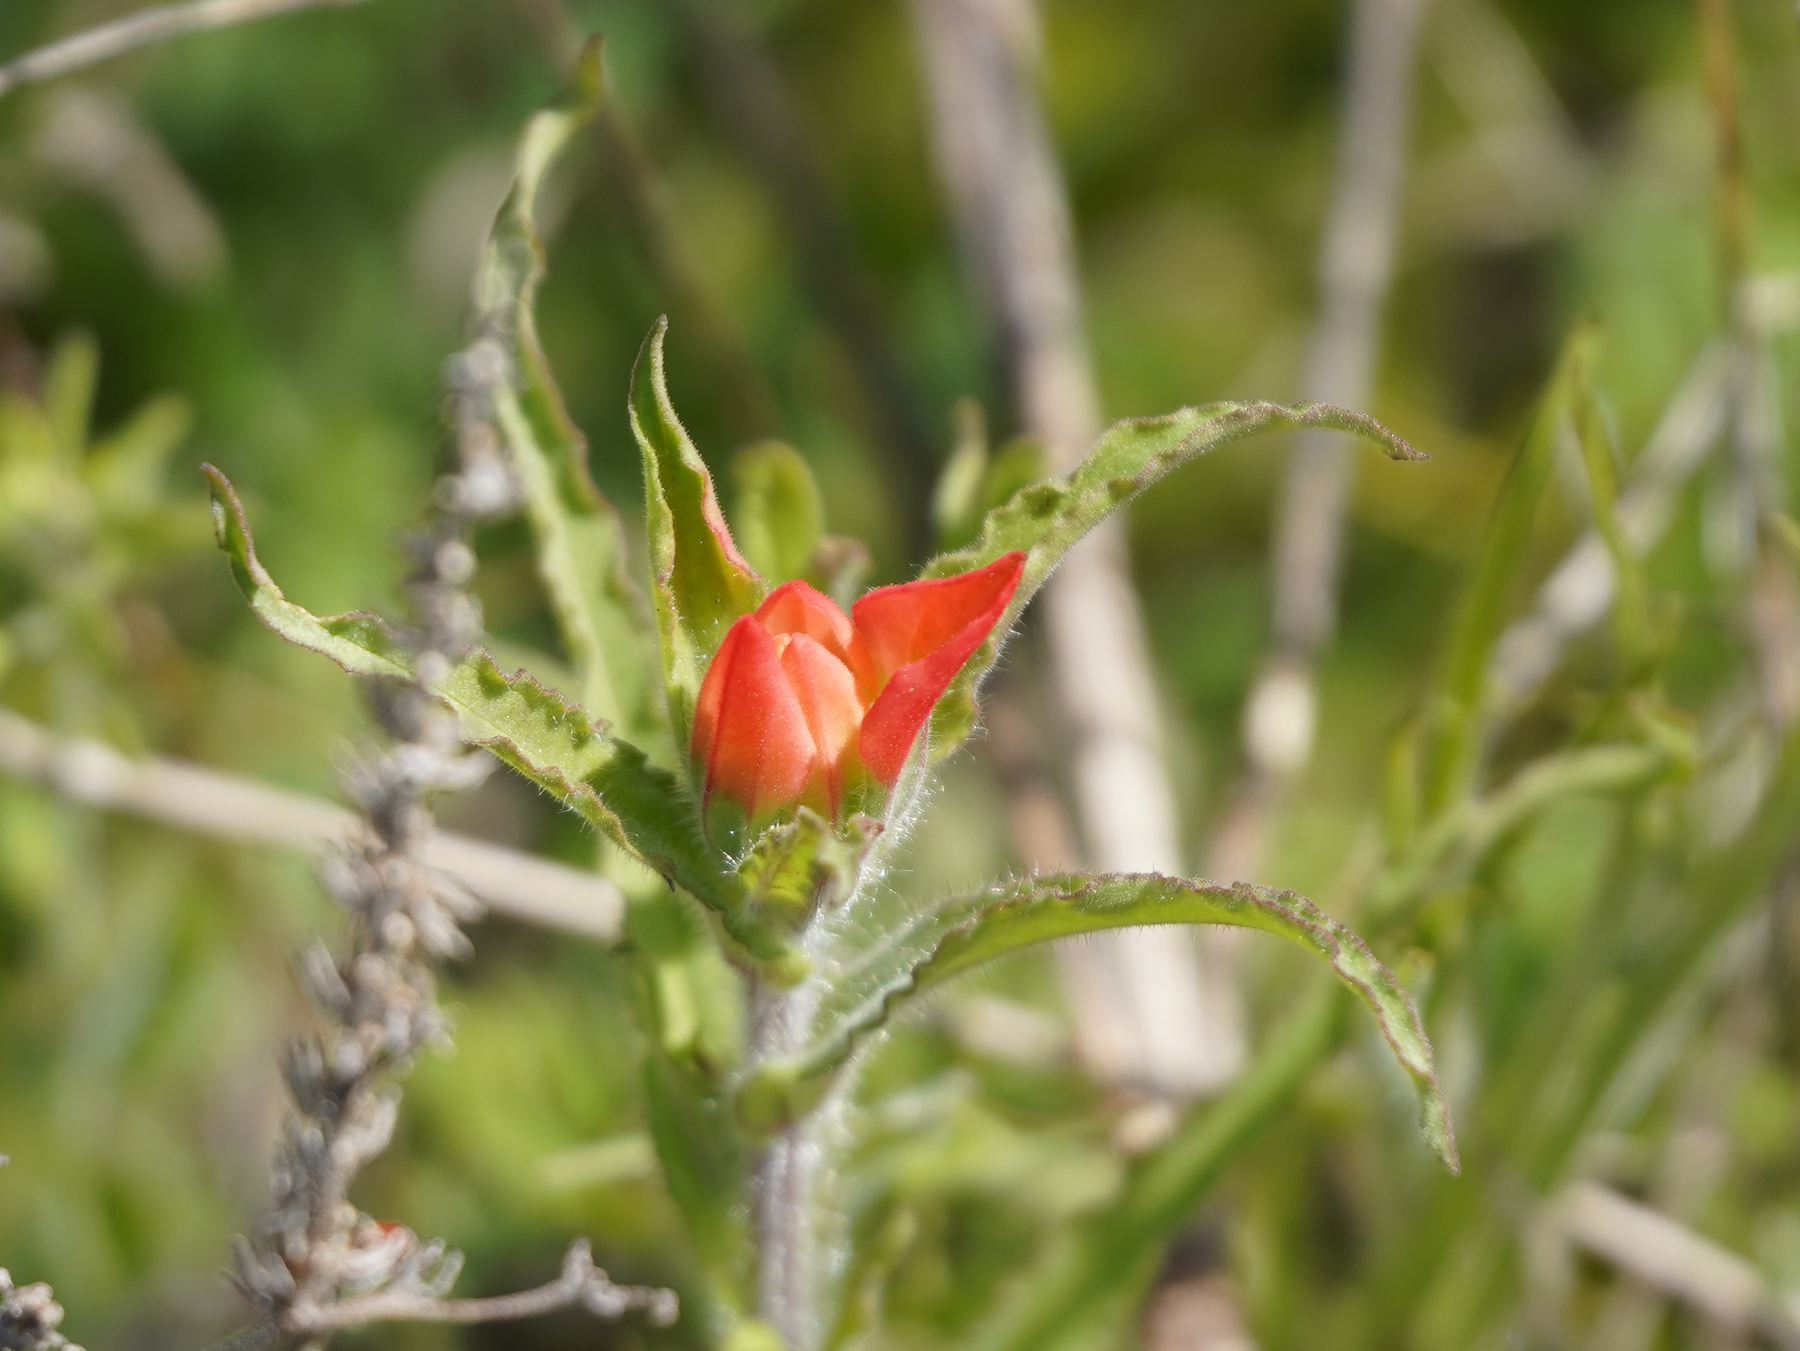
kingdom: Plantae
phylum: Tracheophyta
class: Magnoliopsida
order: Lamiales
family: Orobanchaceae
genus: Castilleja
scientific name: Castilleja indivisa
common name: Texas paintbrush
